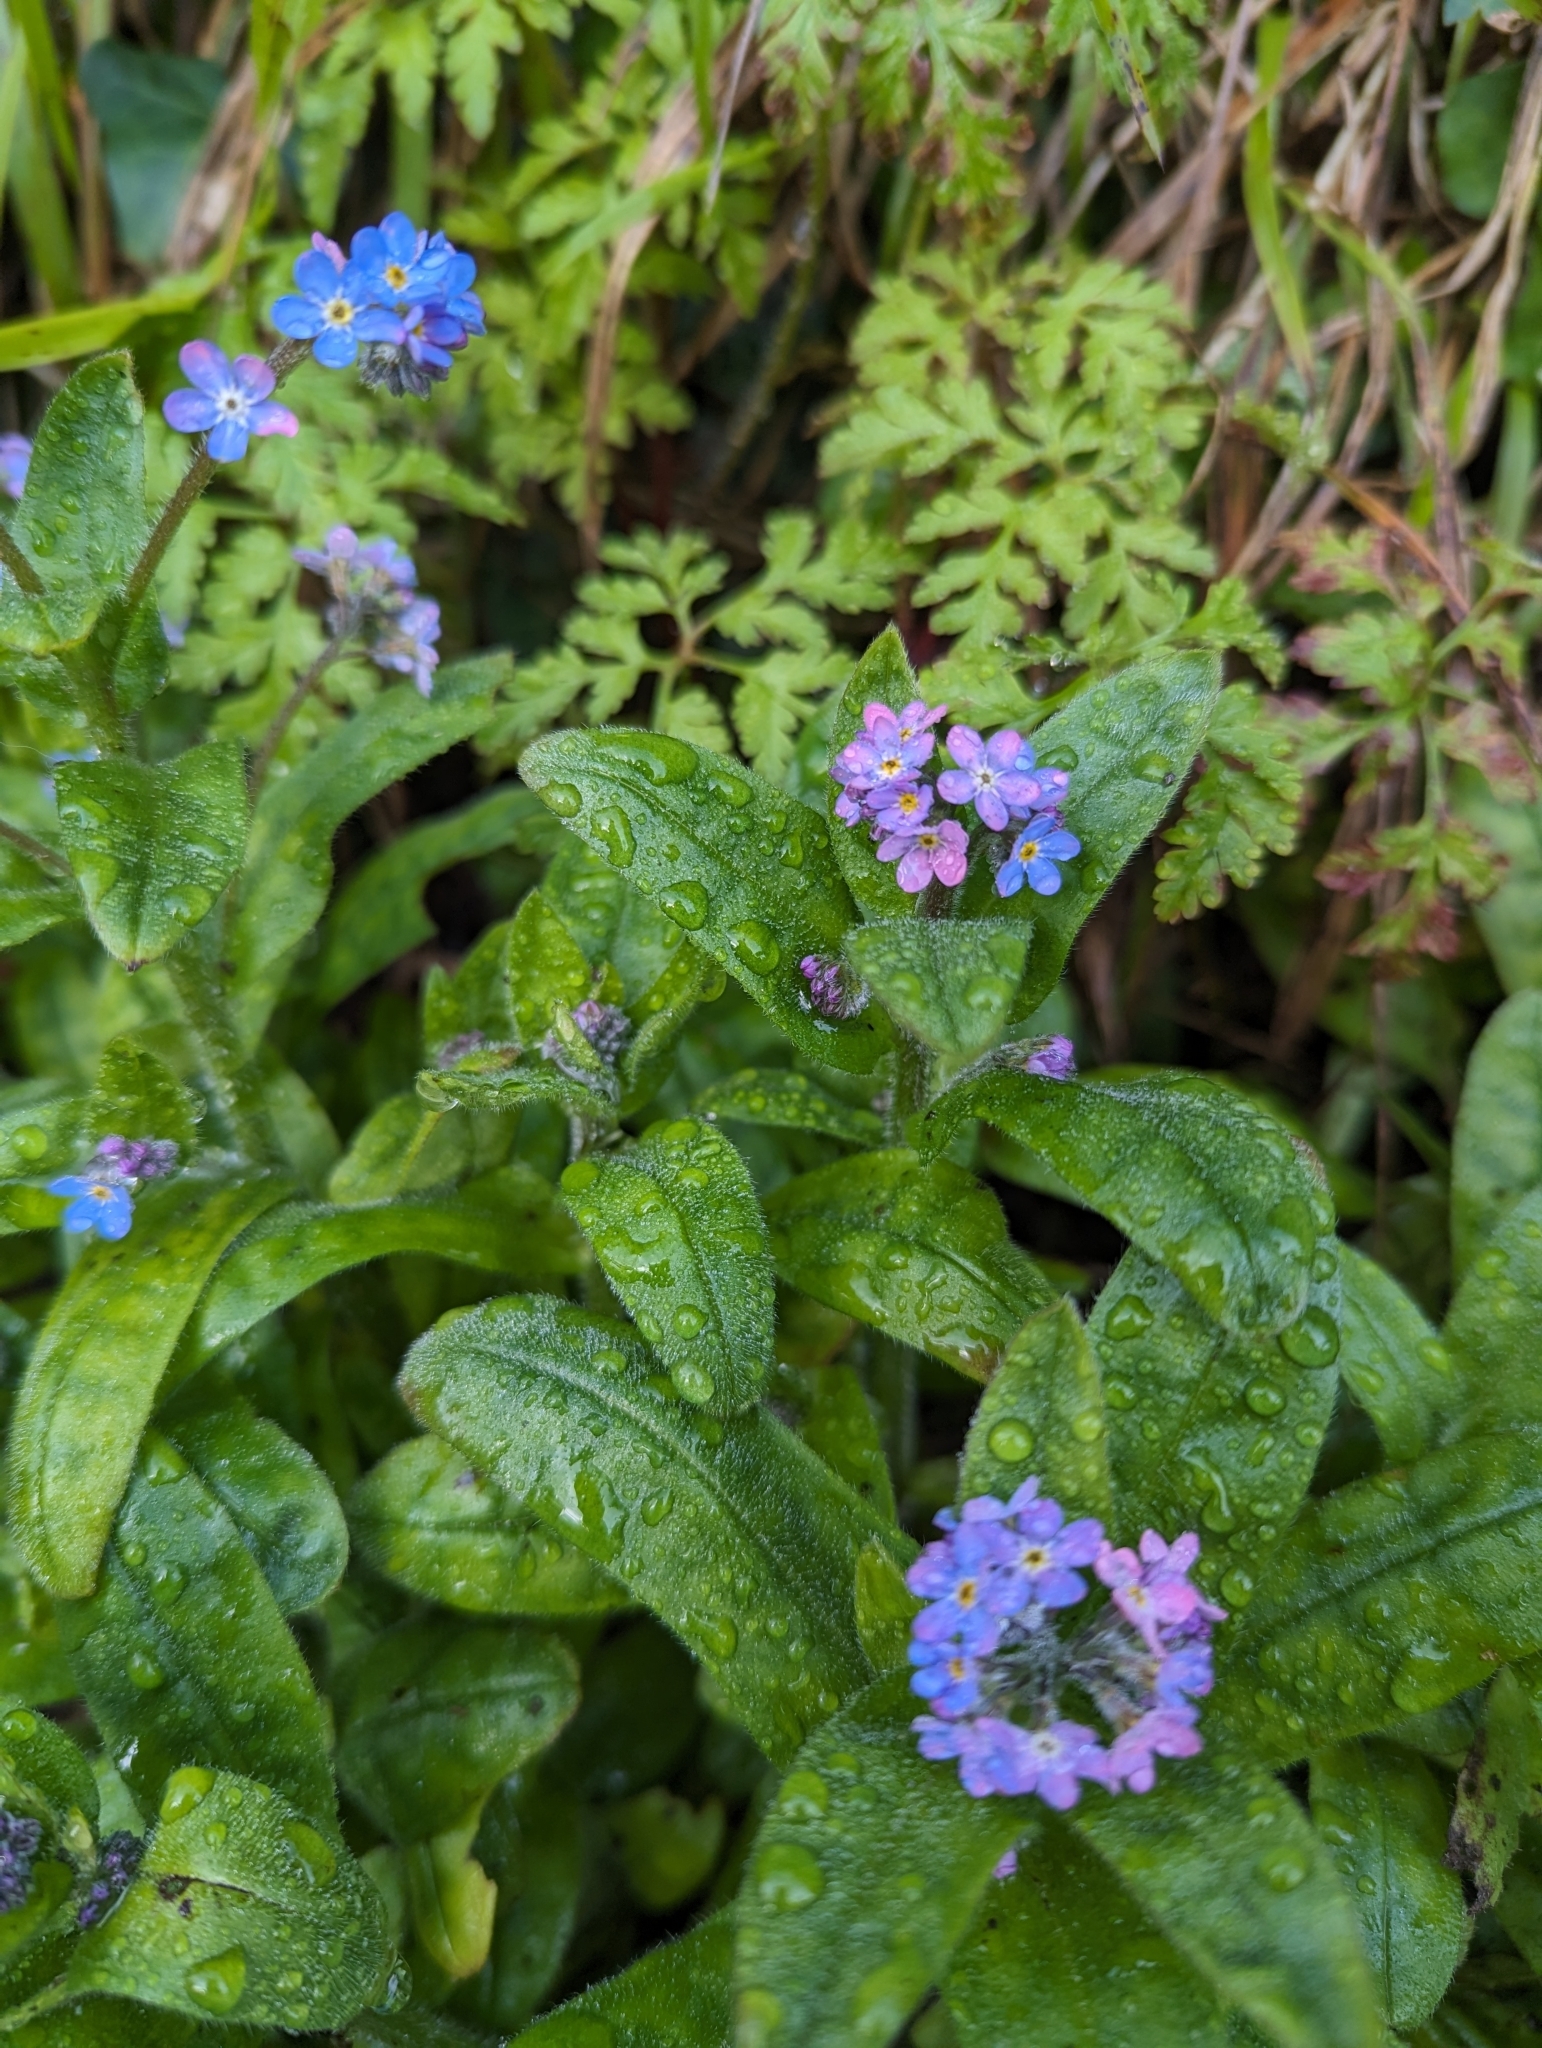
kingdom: Plantae
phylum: Tracheophyta
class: Magnoliopsida
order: Boraginales
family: Boraginaceae
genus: Myosotis
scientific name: Myosotis sylvatica
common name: Wood forget-me-not
